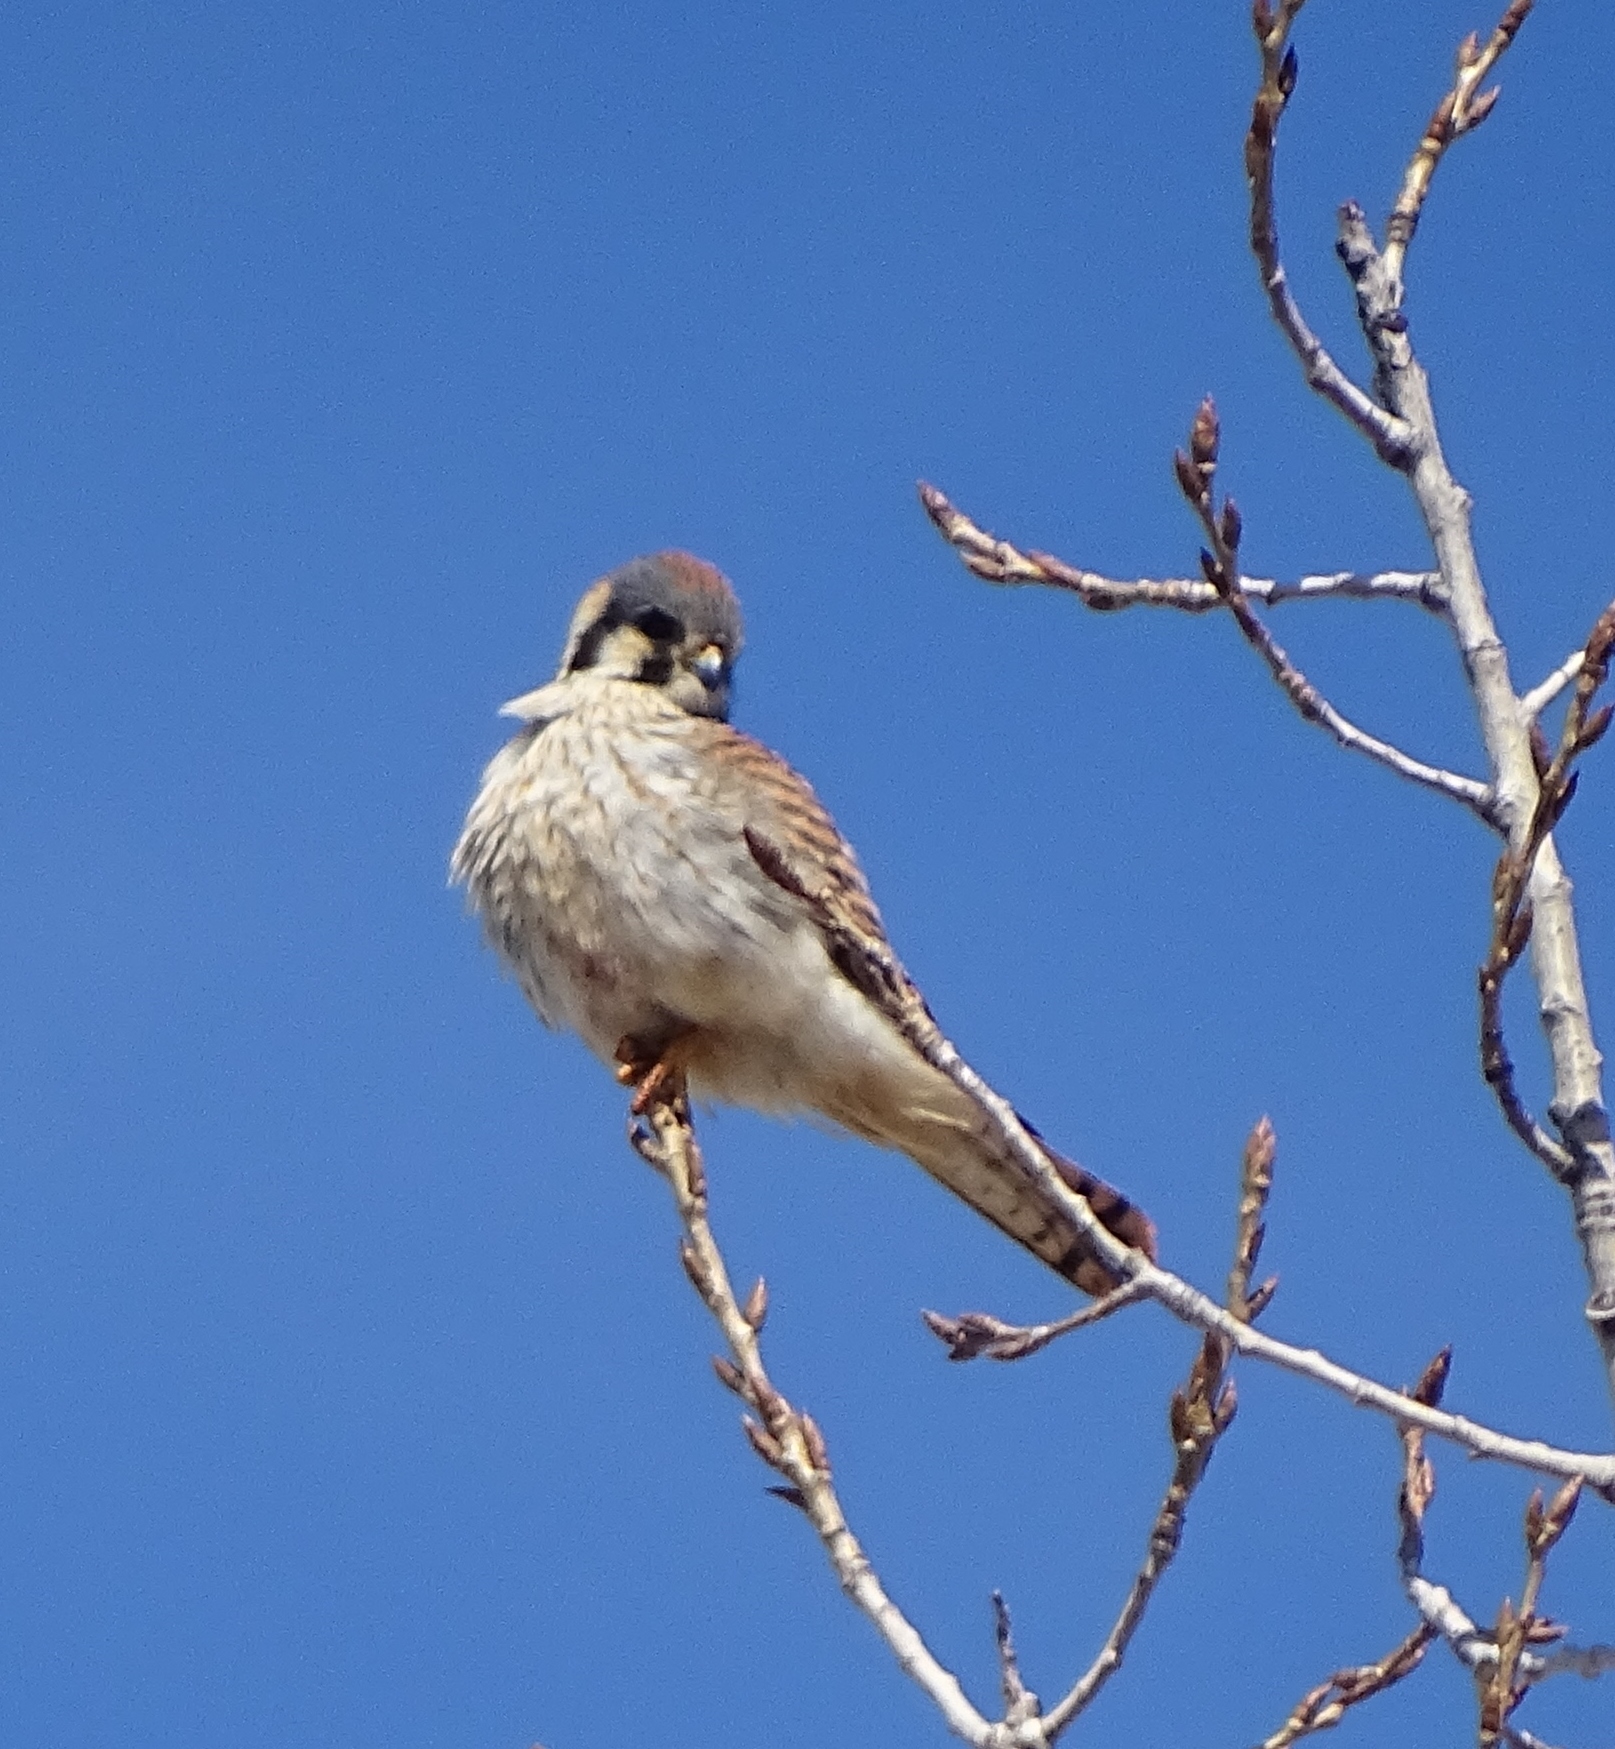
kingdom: Animalia
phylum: Chordata
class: Aves
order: Falconiformes
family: Falconidae
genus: Falco
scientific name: Falco sparverius
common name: American kestrel
